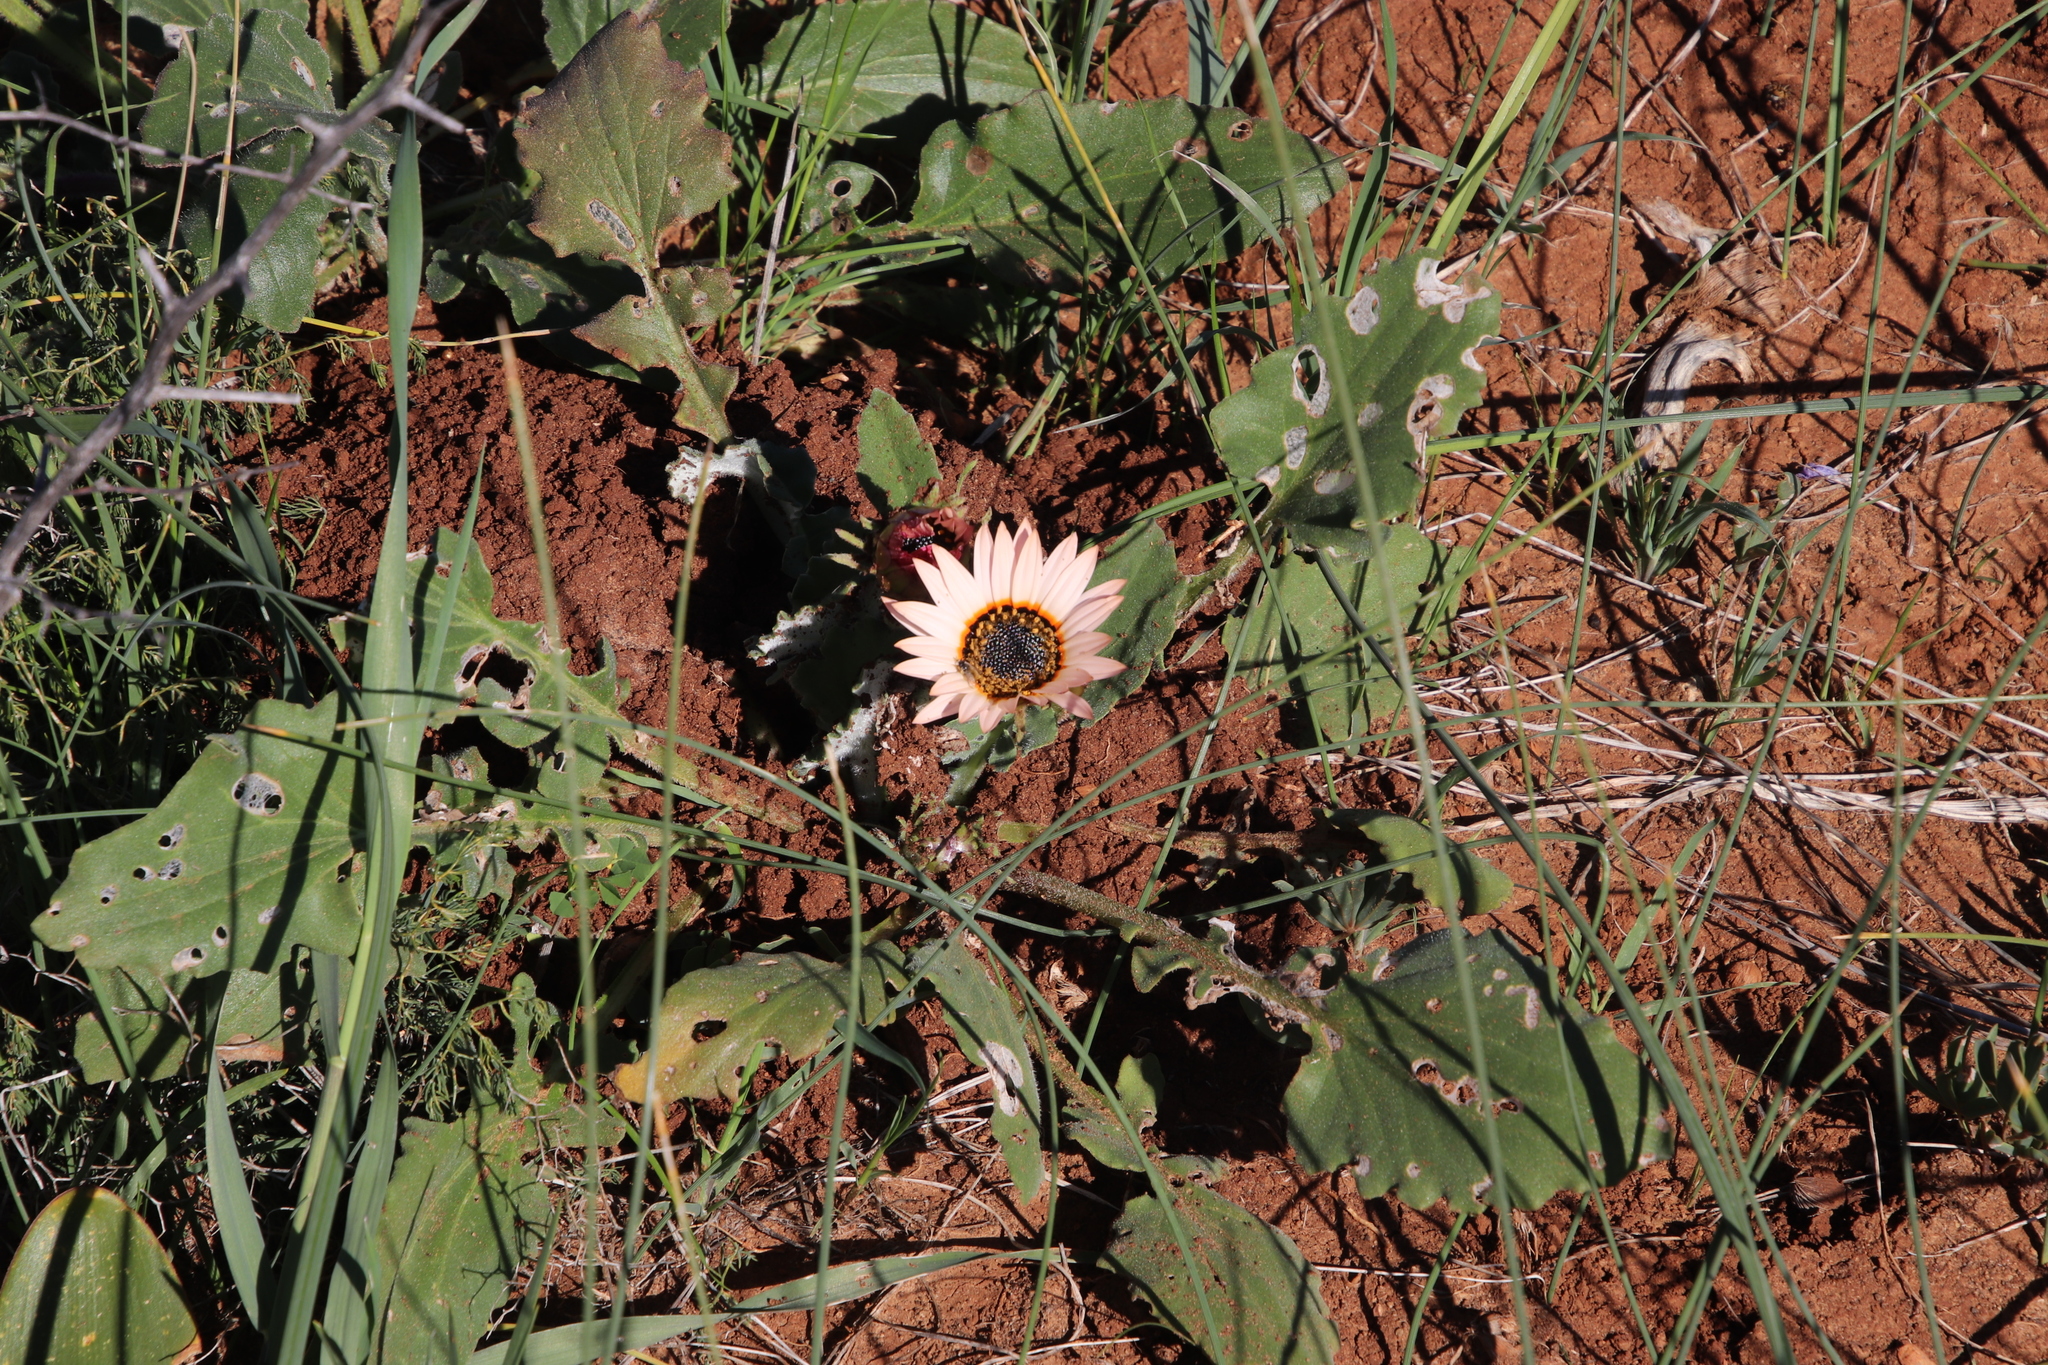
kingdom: Plantae
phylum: Tracheophyta
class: Magnoliopsida
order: Asterales
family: Asteraceae
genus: Arctotis
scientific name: Arctotis acaulis
